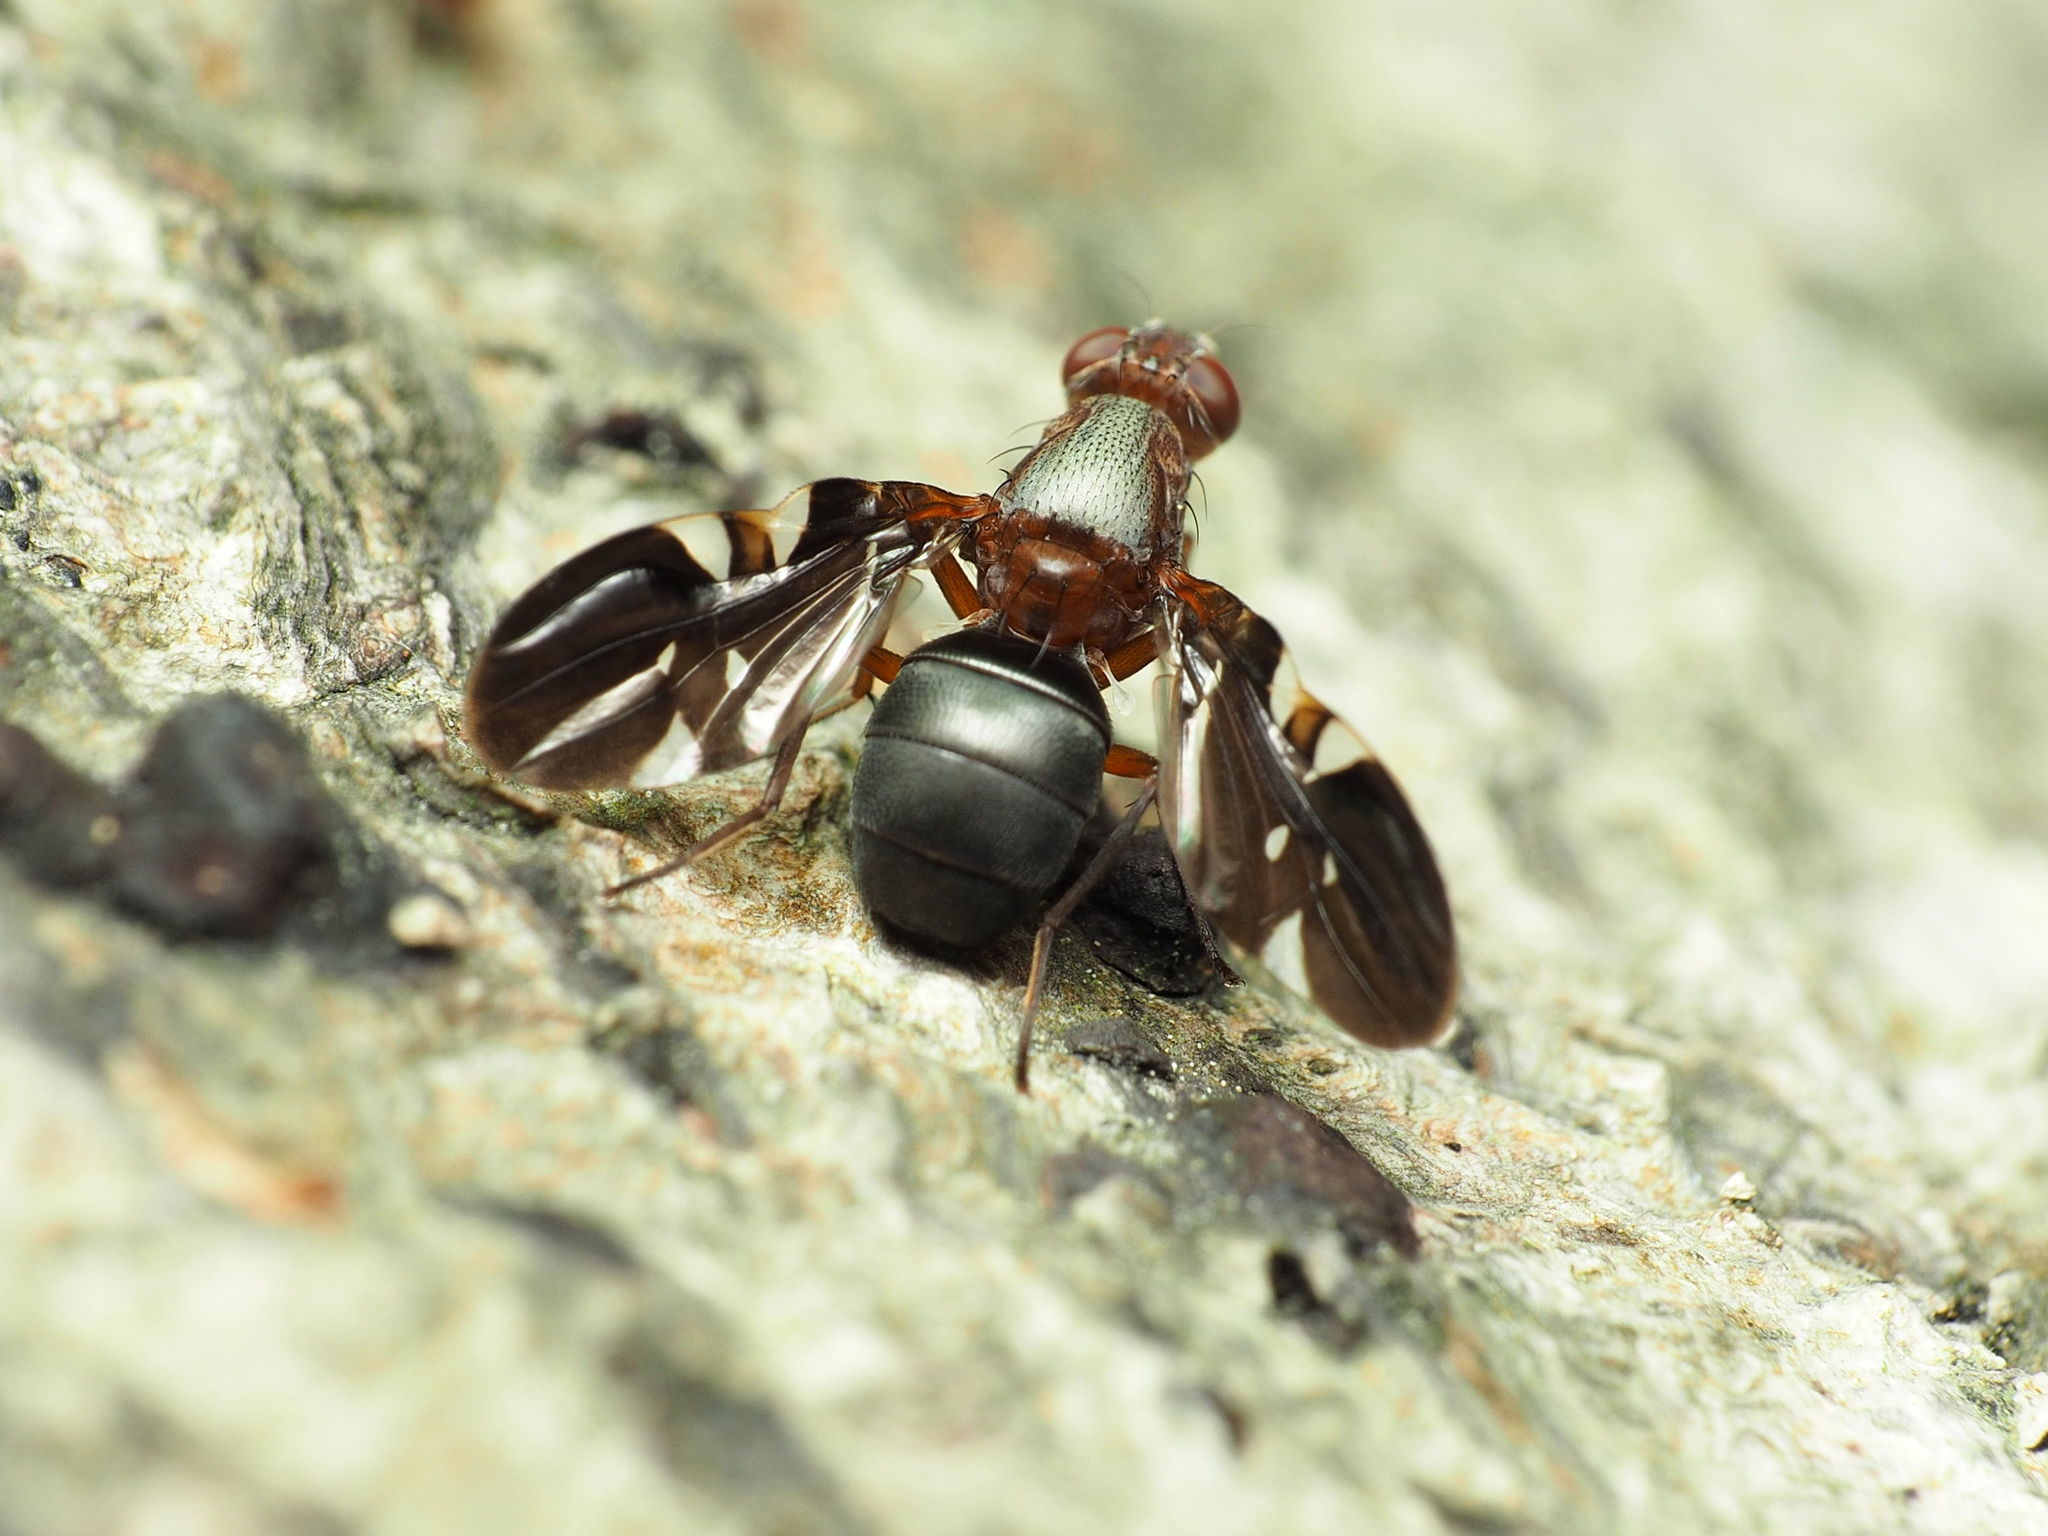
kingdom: Animalia
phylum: Arthropoda
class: Insecta
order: Diptera
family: Ulidiidae
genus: Delphinia
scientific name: Delphinia picta
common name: Common picture-winged fly
